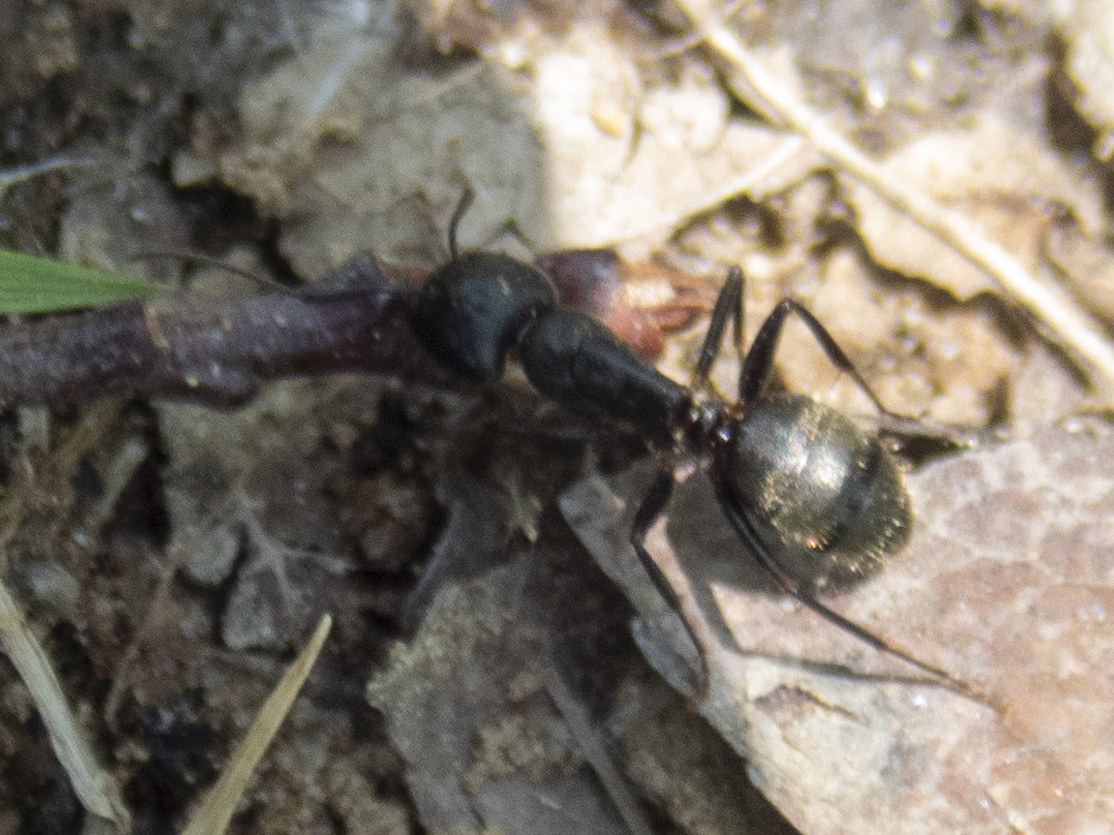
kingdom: Animalia
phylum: Arthropoda
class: Insecta
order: Hymenoptera
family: Formicidae
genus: Camponotus
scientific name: Camponotus pennsylvanicus
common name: Black carpenter ant
